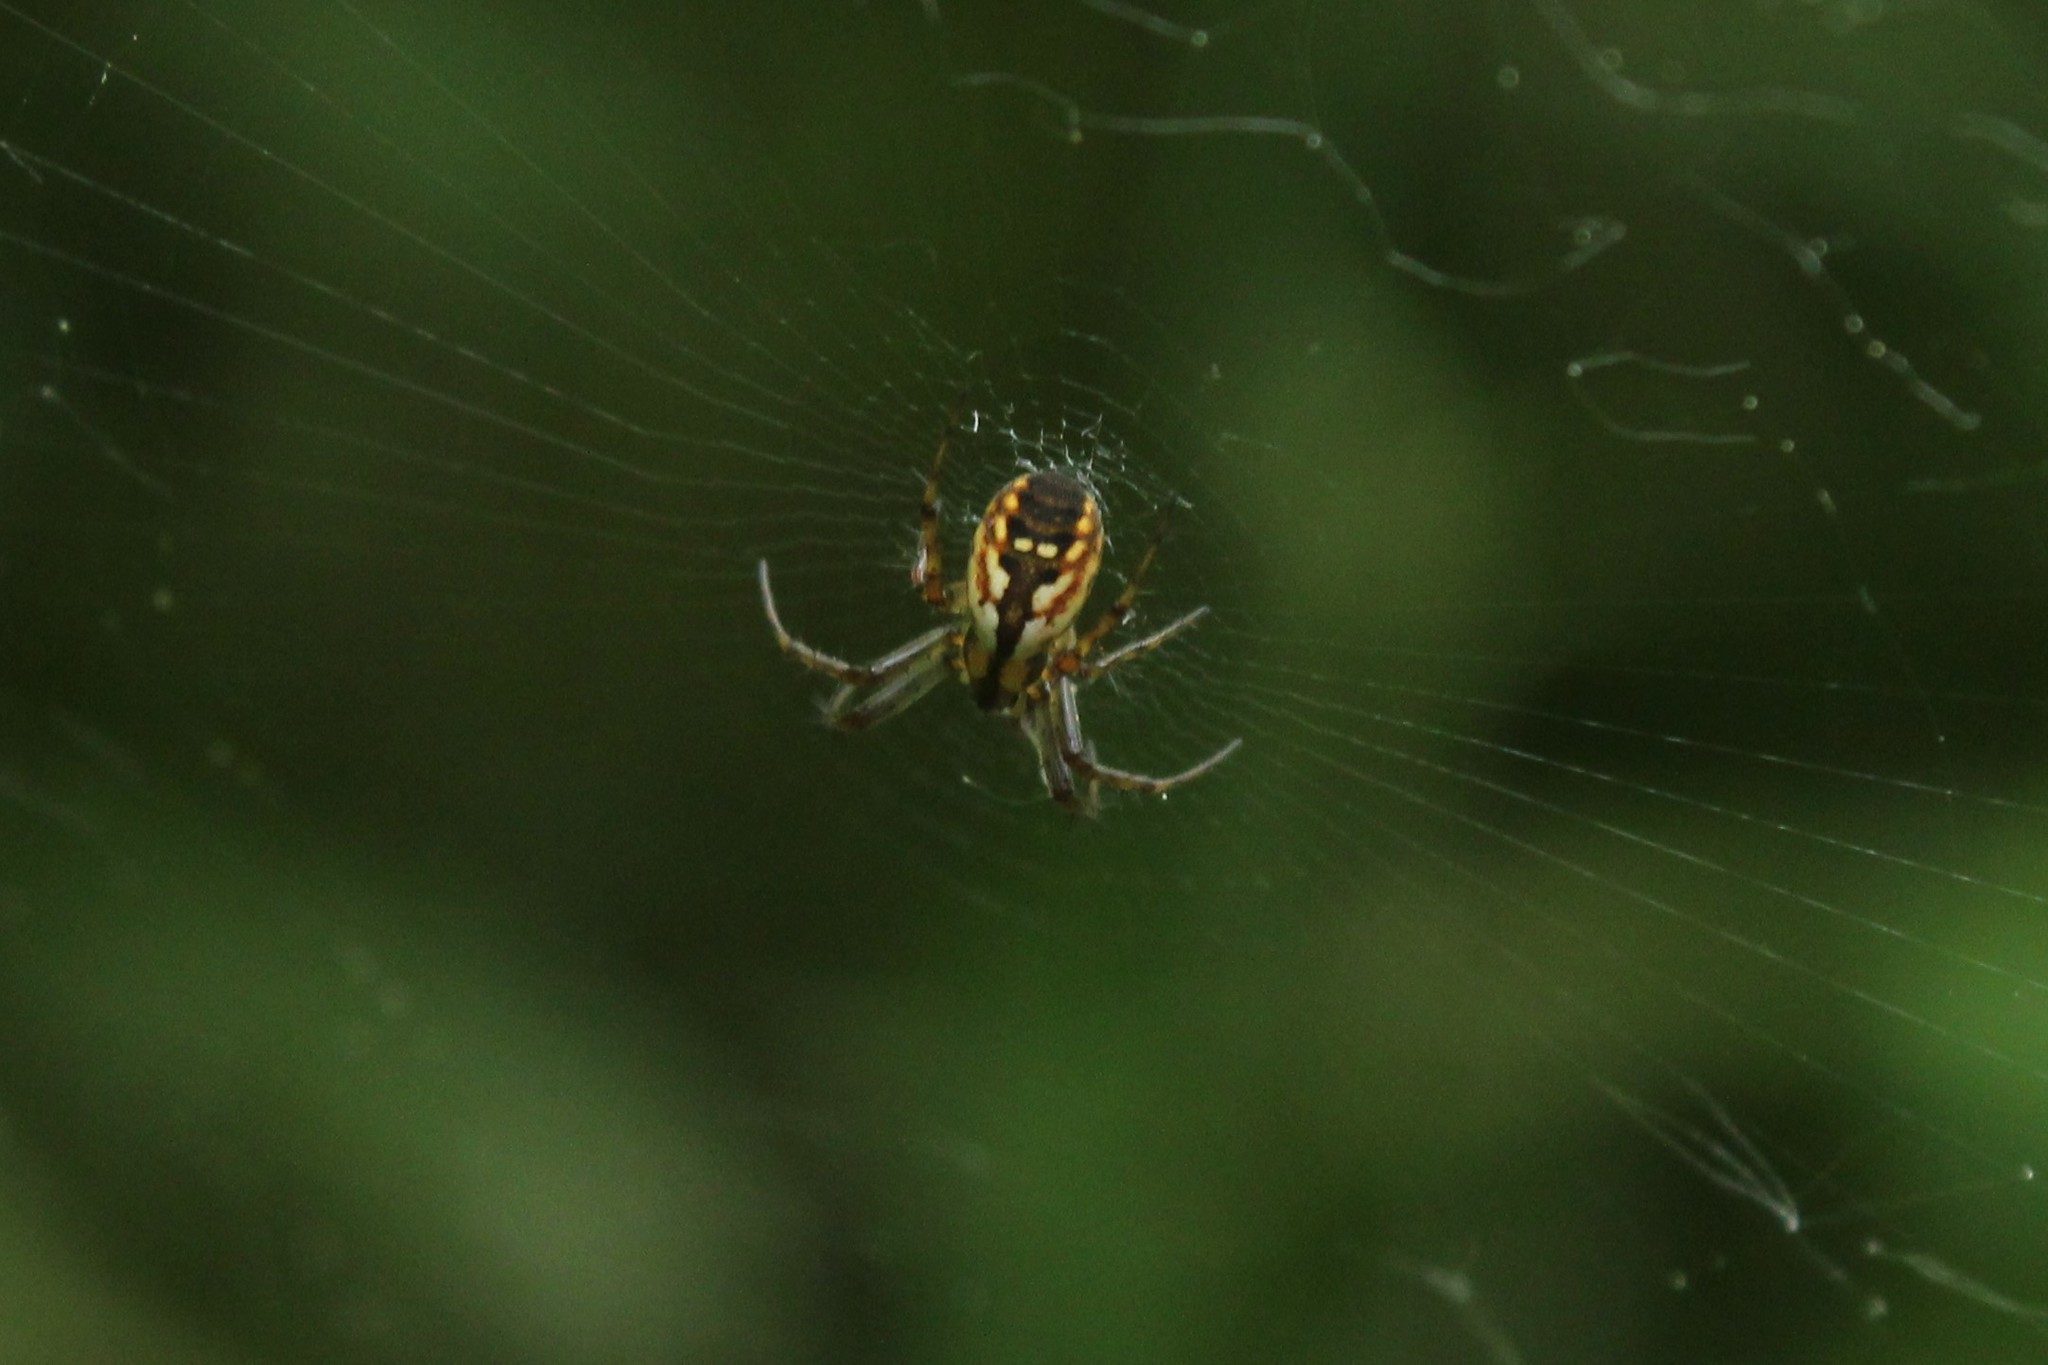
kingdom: Animalia
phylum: Arthropoda
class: Arachnida
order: Araneae
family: Araneidae
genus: Mangora
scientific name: Mangora placida
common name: Tuft-legged orbweaver
